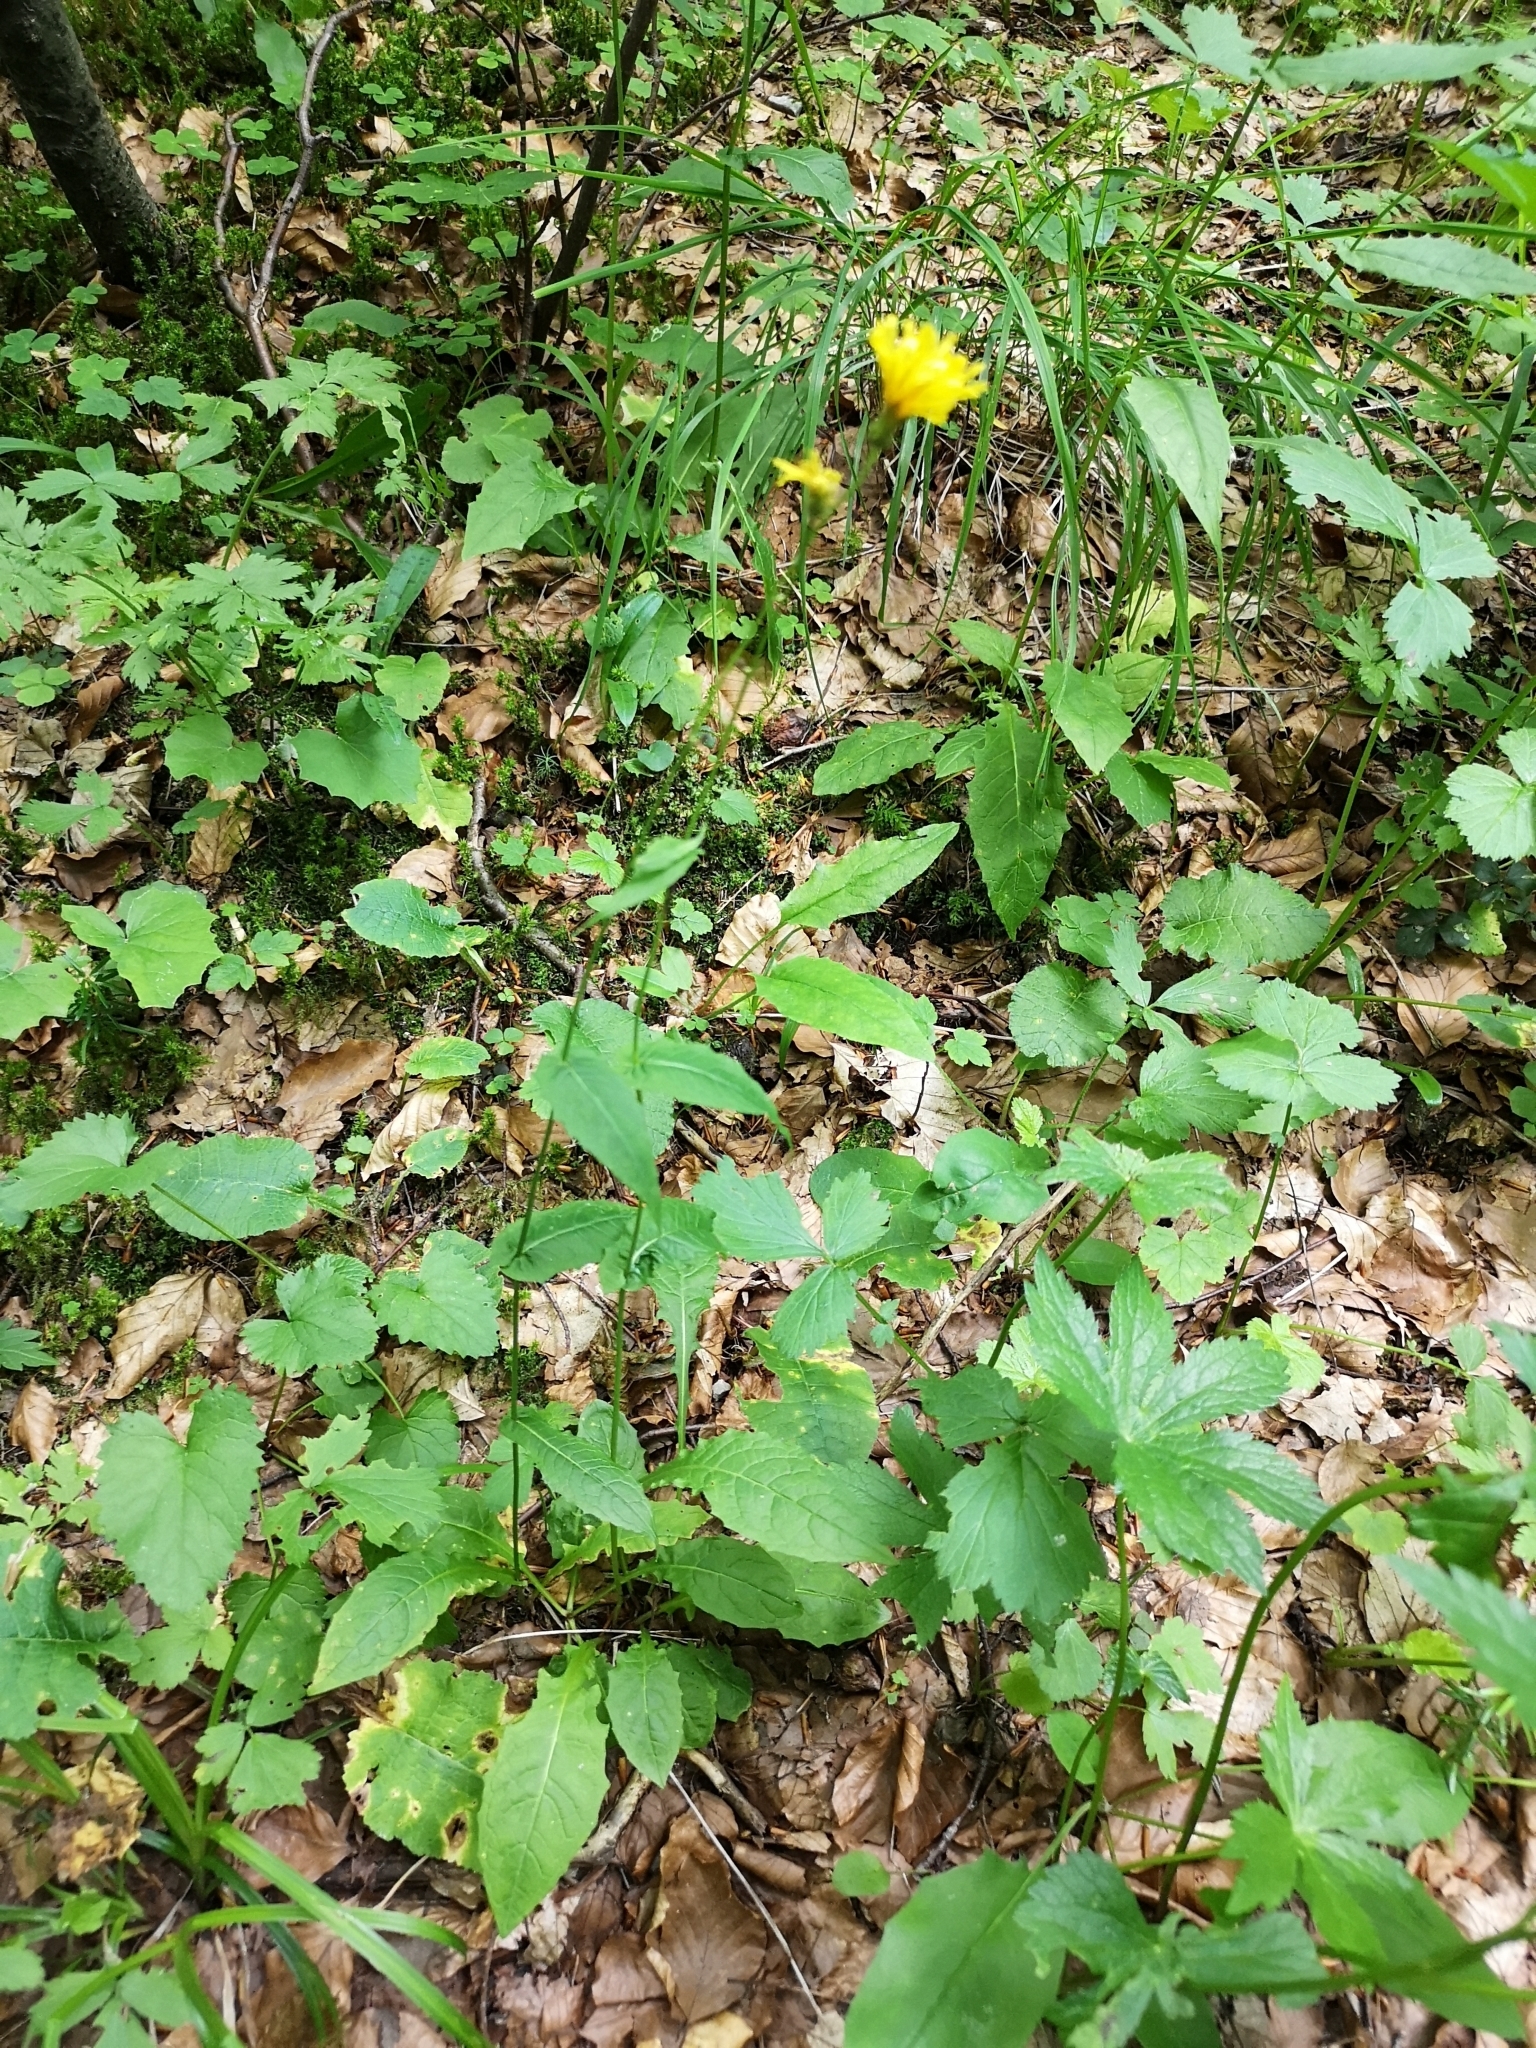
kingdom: Plantae
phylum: Tracheophyta
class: Magnoliopsida
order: Asterales
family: Asteraceae
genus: Crepis
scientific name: Crepis paludosa
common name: Marsh hawk's-beard
